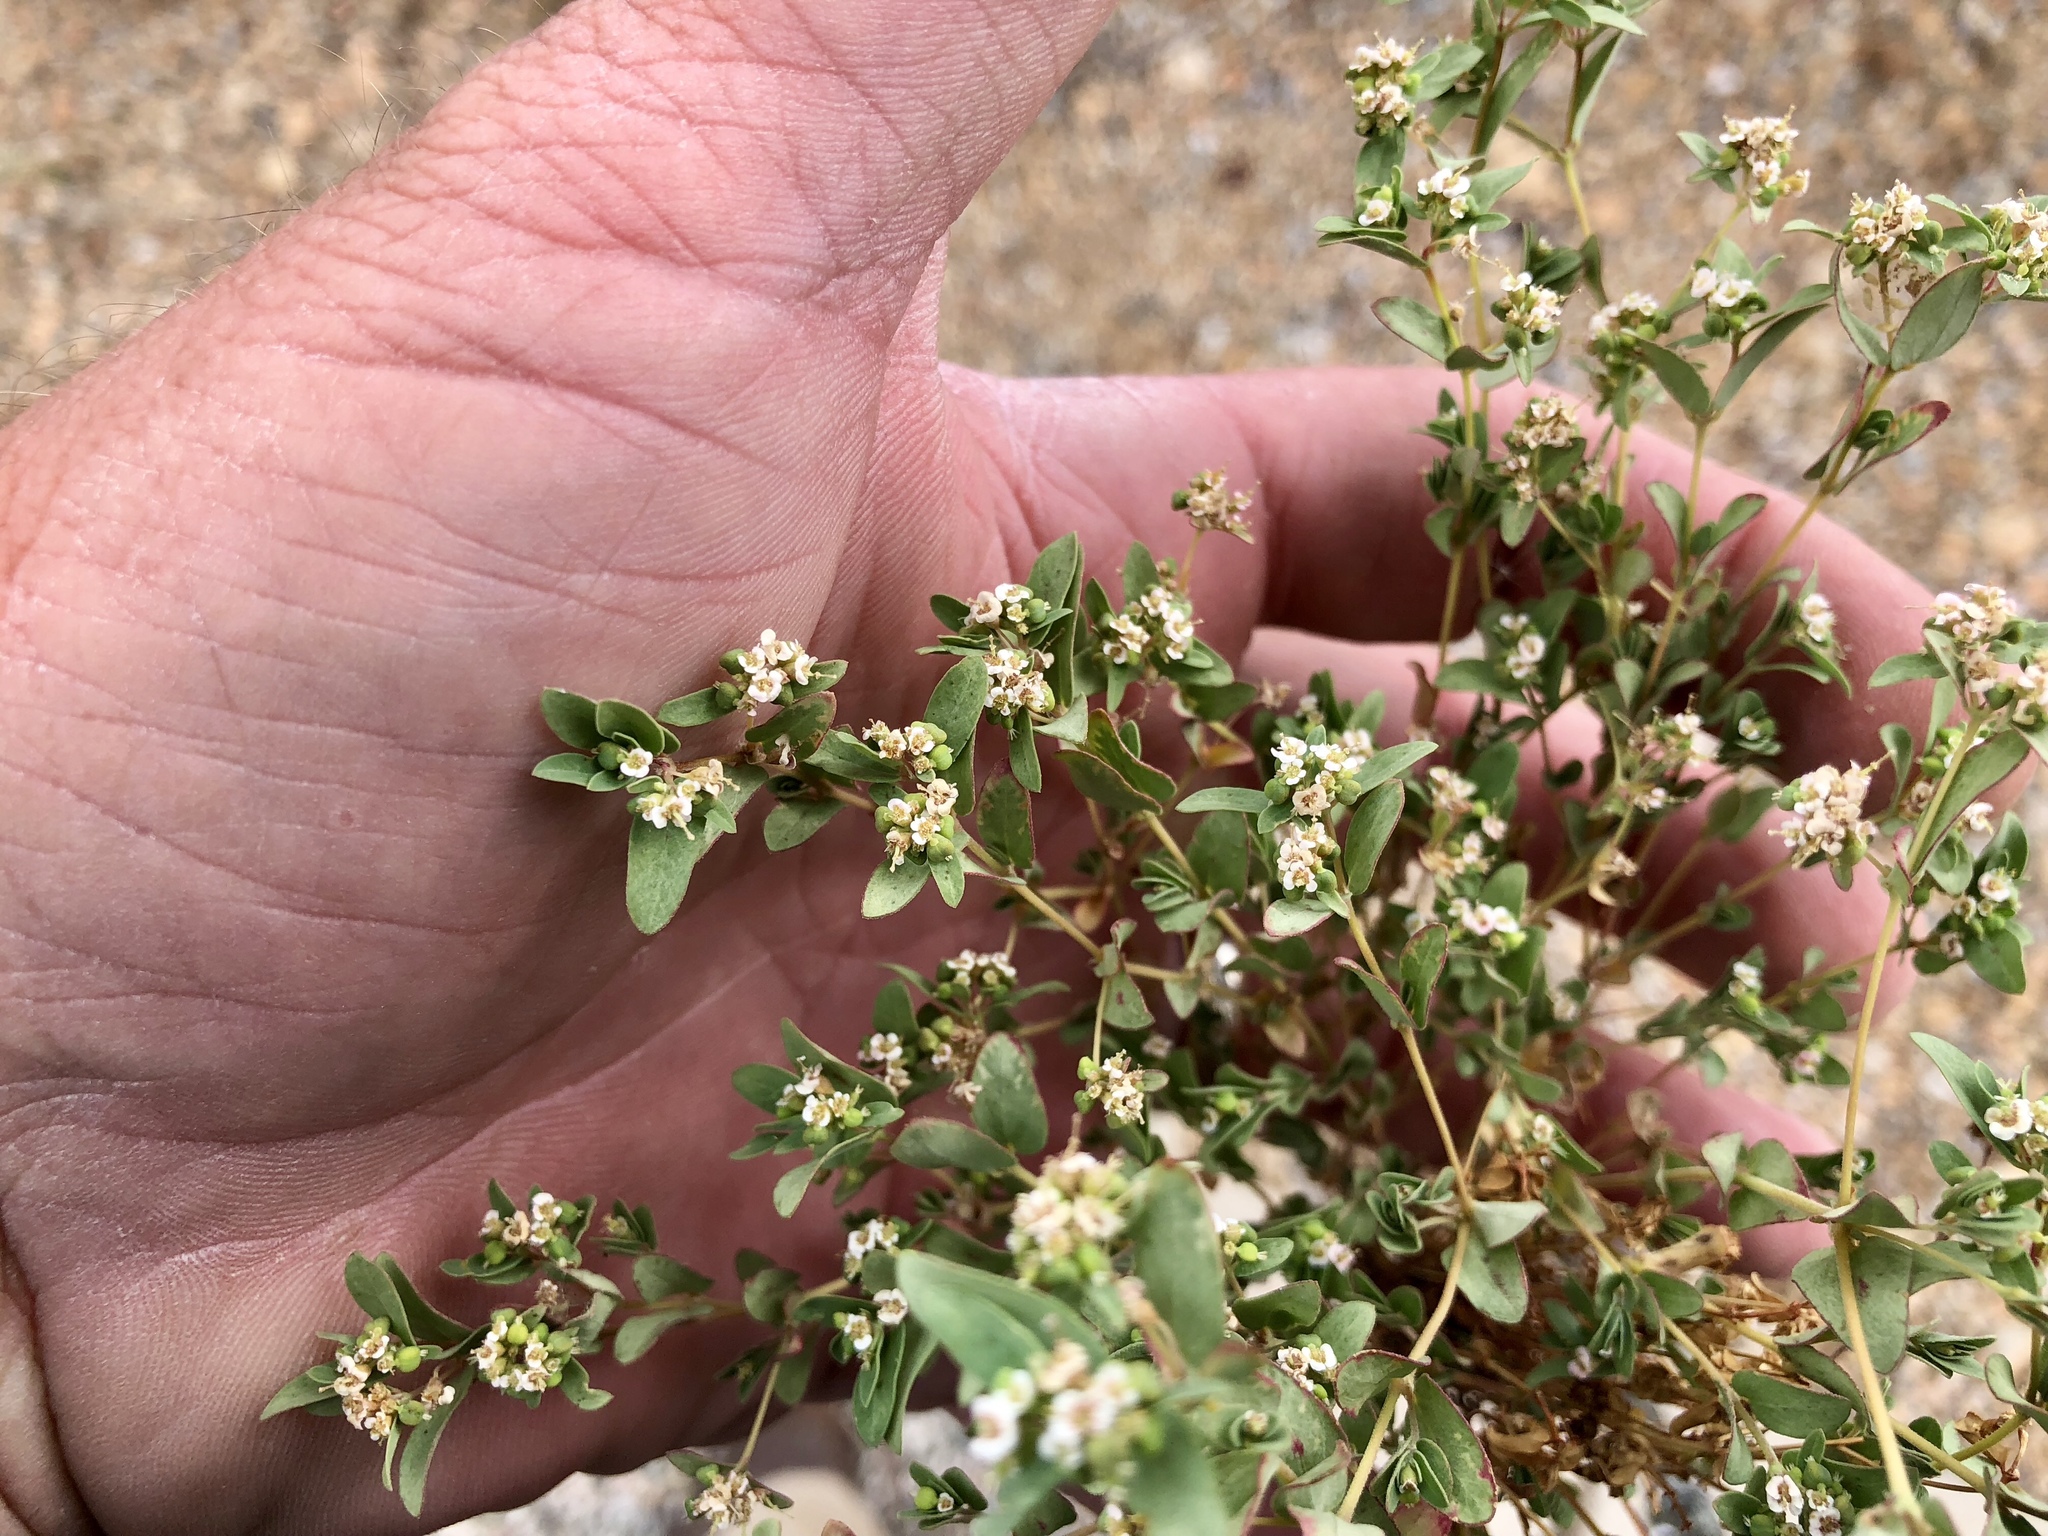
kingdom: Plantae
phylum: Tracheophyta
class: Magnoliopsida
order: Malpighiales
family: Euphorbiaceae
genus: Euphorbia
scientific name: Euphorbia capitellata
